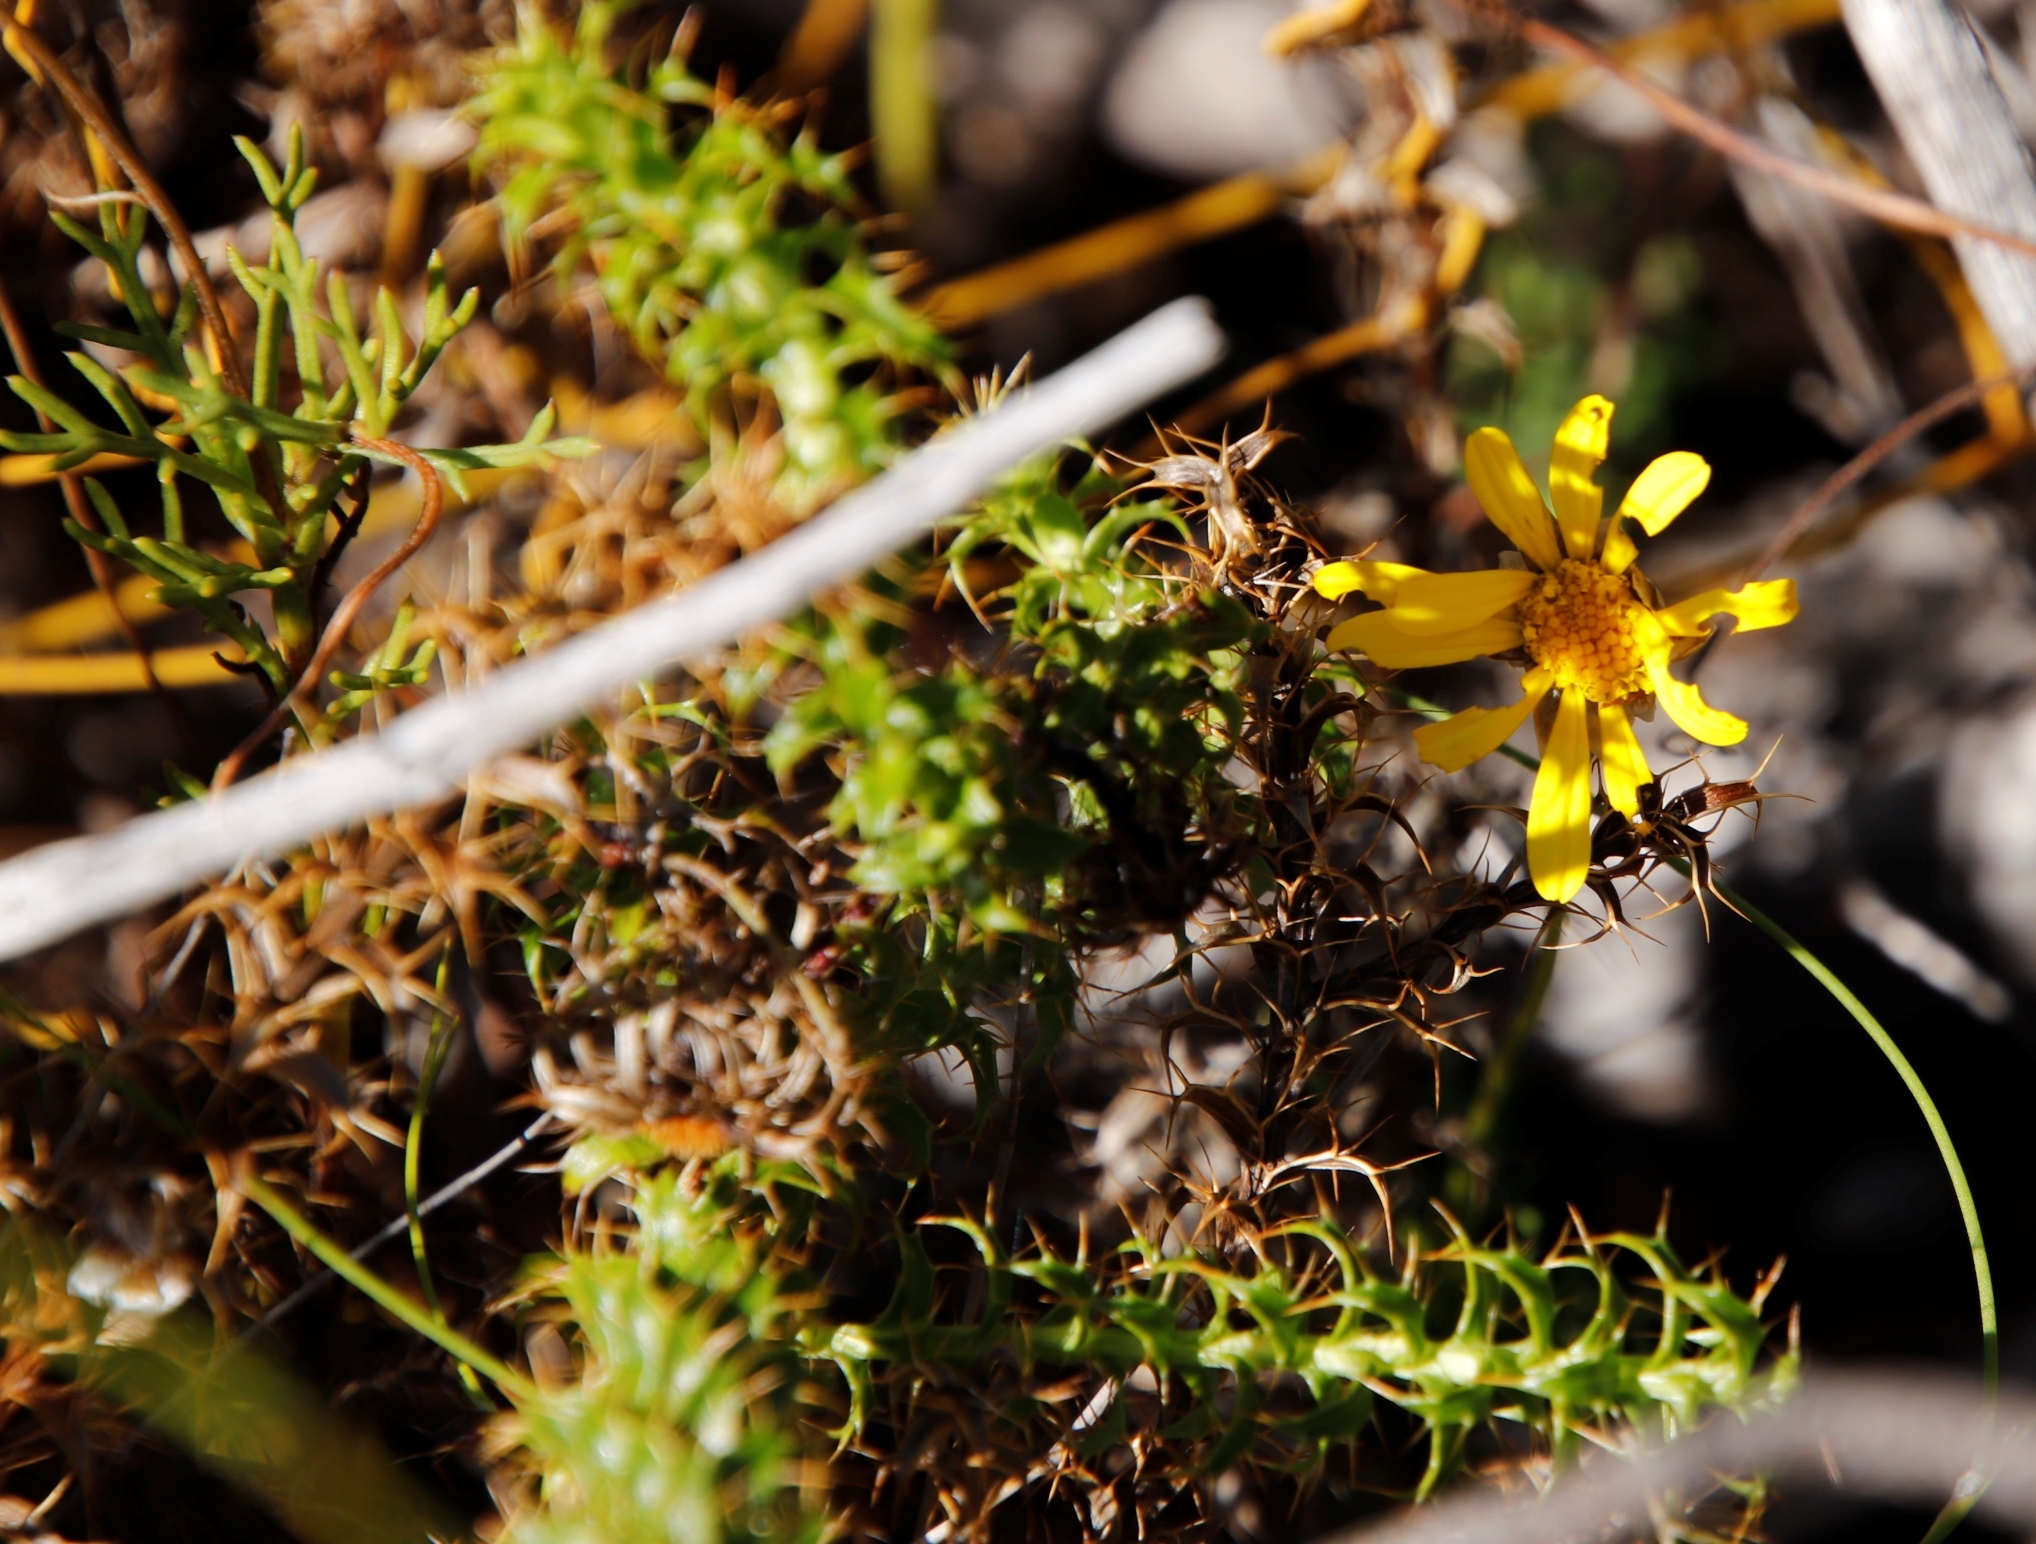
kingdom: Plantae
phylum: Tracheophyta
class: Magnoliopsida
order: Asterales
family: Asteraceae
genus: Cullumia
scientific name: Cullumia setosa
